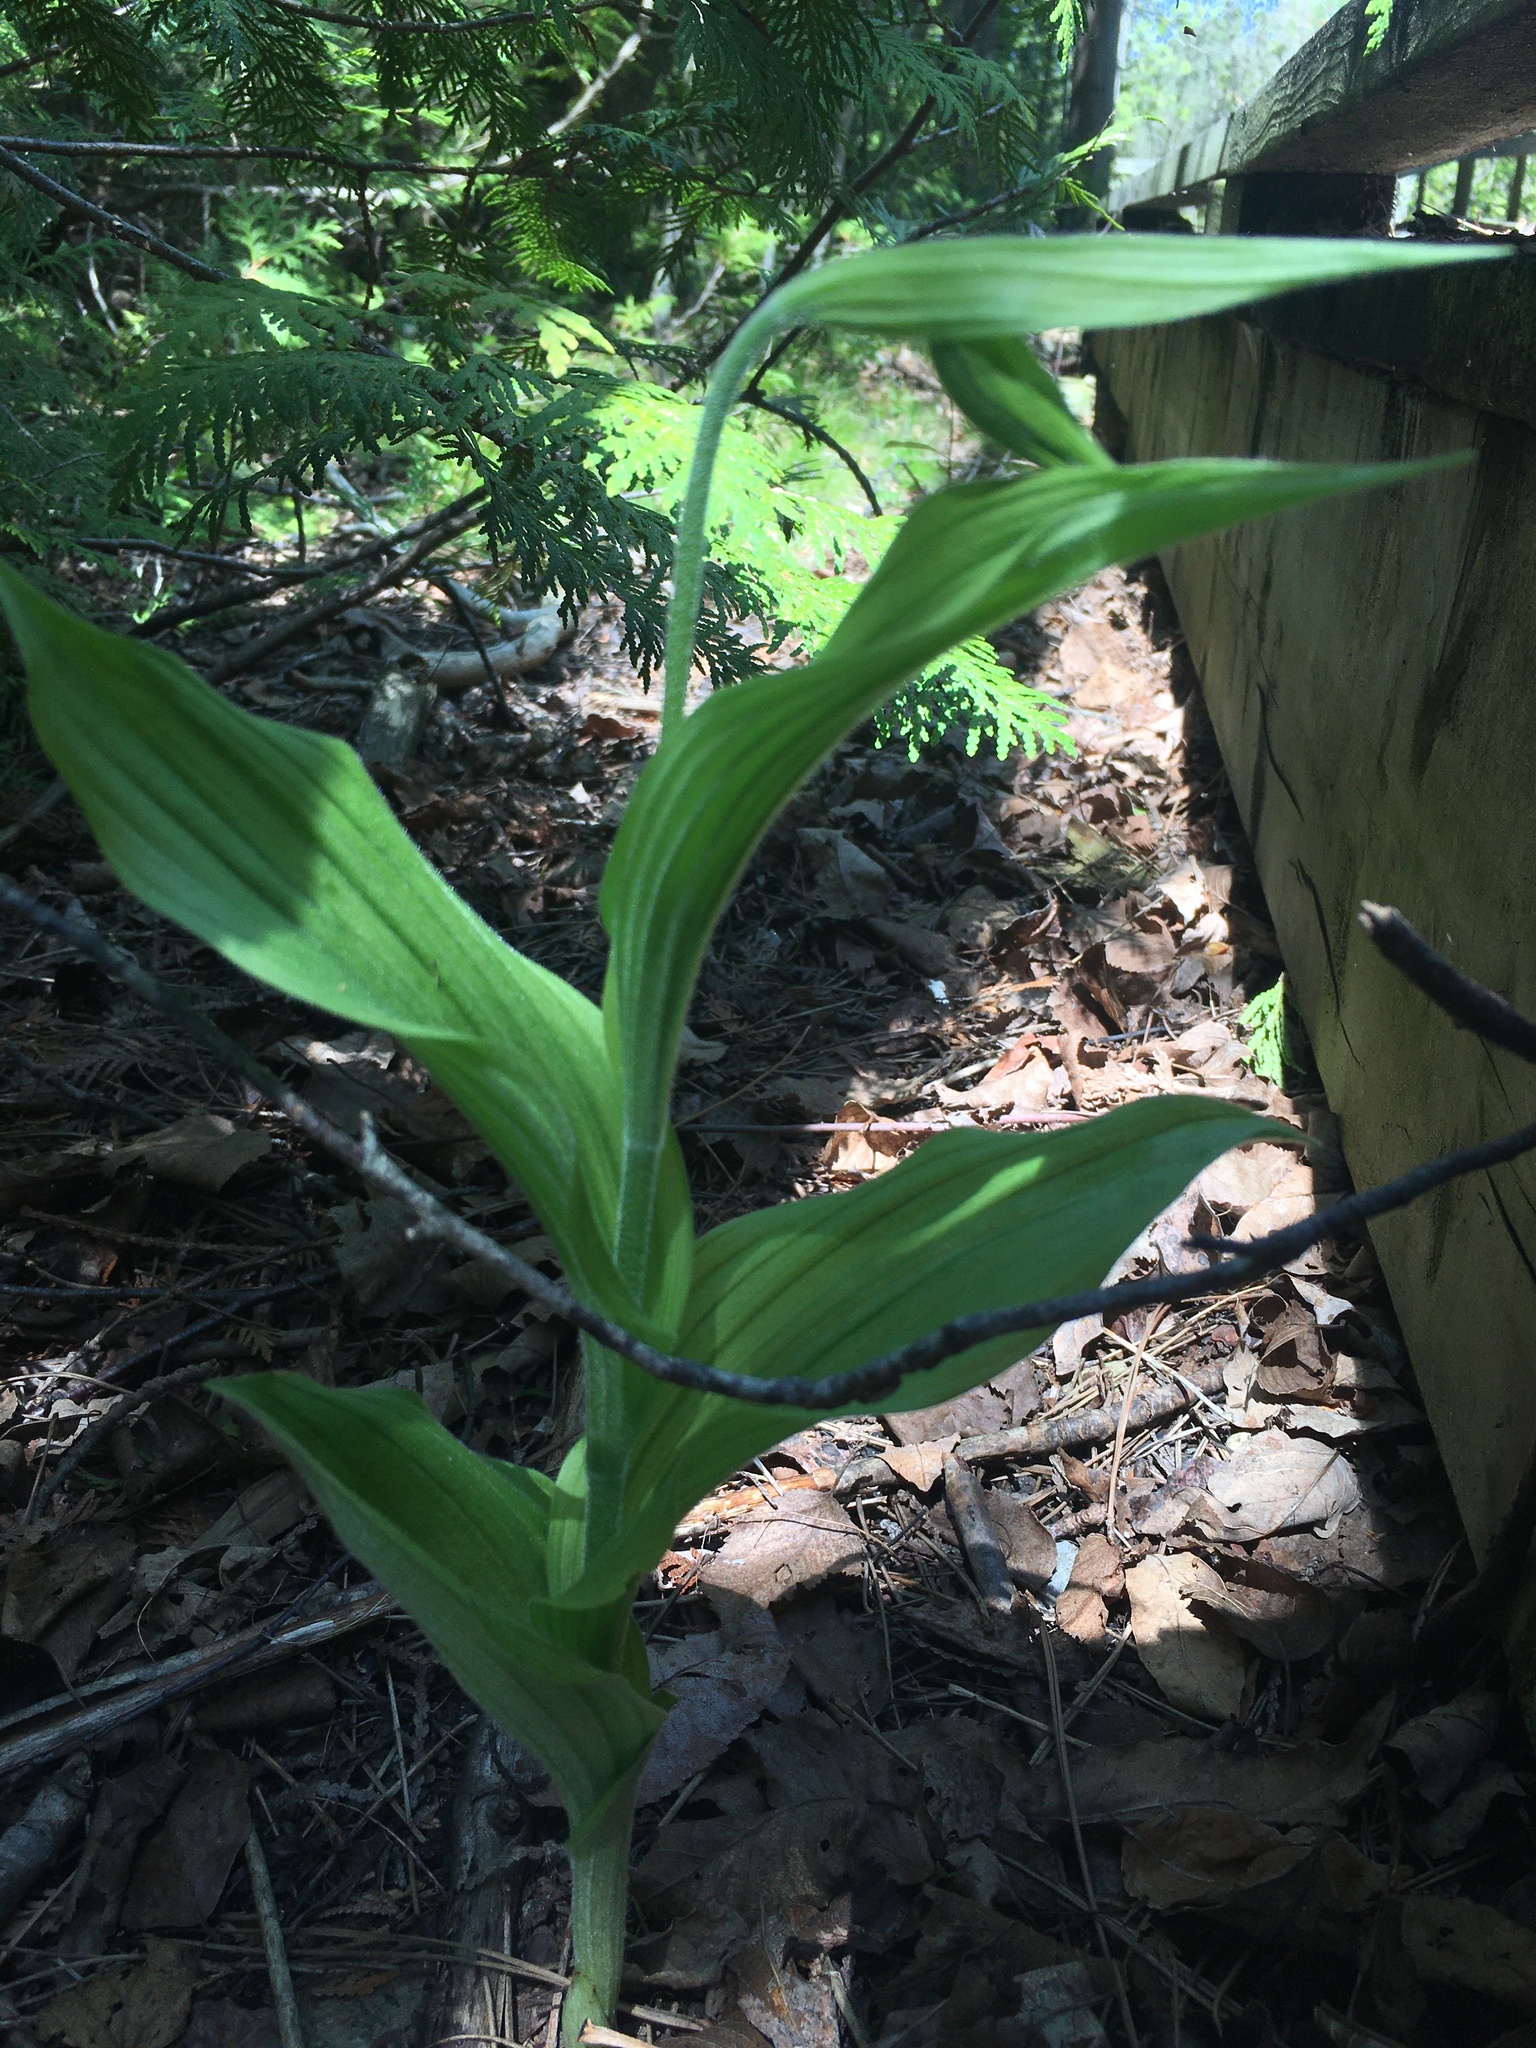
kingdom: Plantae
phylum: Tracheophyta
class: Liliopsida
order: Asparagales
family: Orchidaceae
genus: Cypripedium
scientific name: Cypripedium parviflorum
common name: American yellow lady's-slipper
